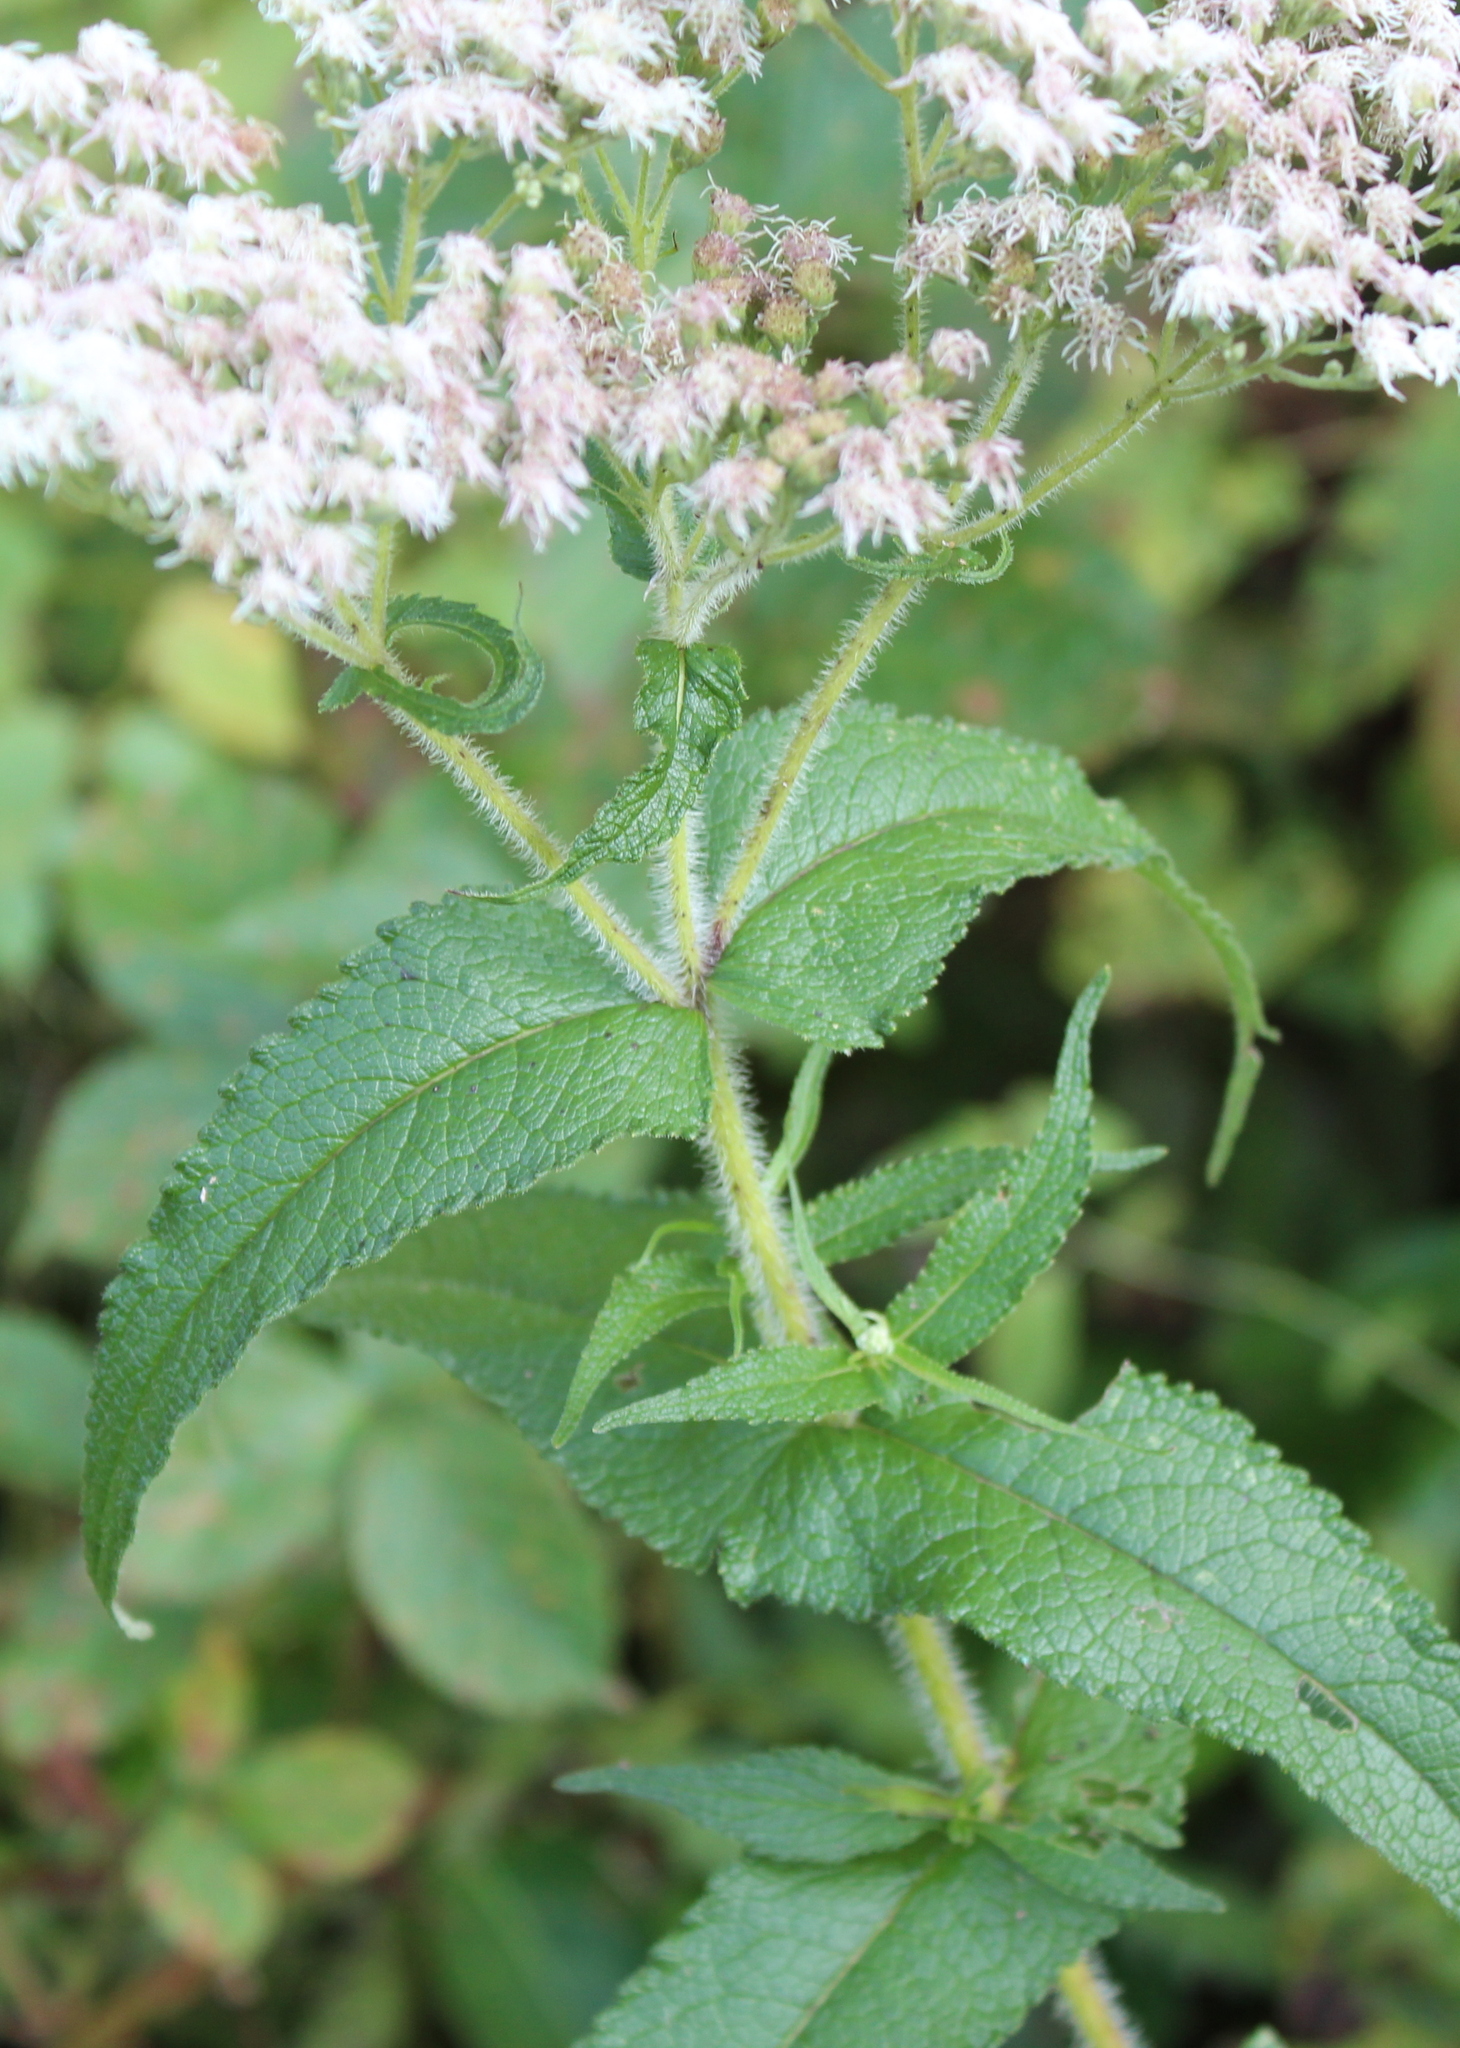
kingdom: Plantae
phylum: Tracheophyta
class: Magnoliopsida
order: Asterales
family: Asteraceae
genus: Eupatorium
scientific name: Eupatorium perfoliatum
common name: Boneset
